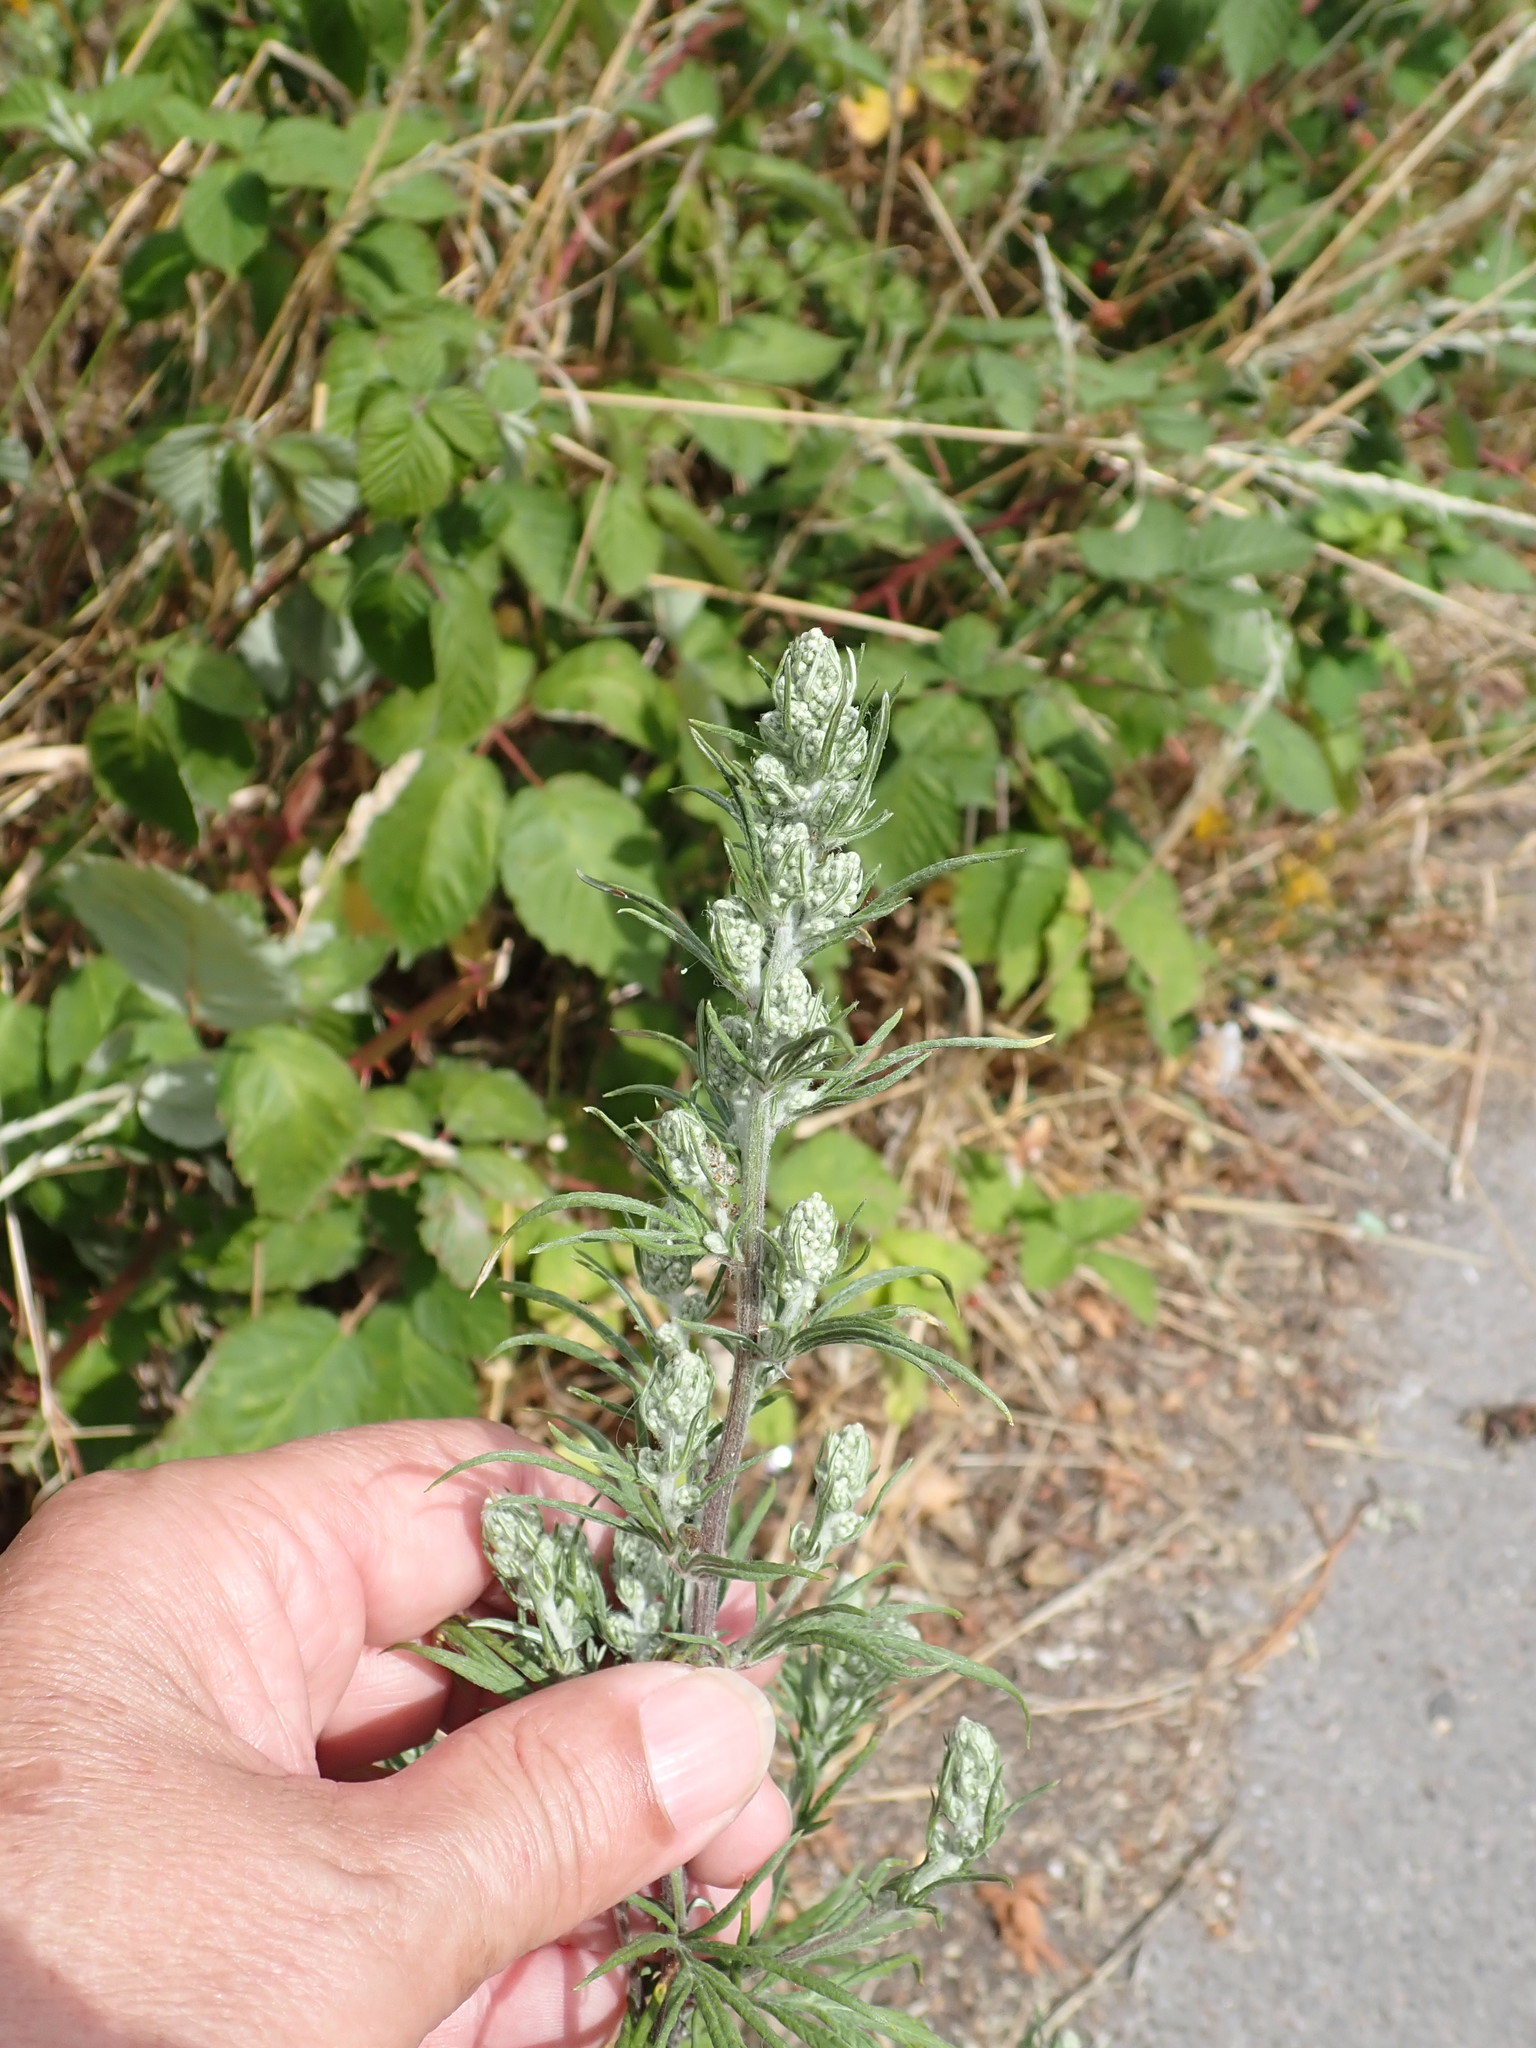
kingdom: Plantae
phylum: Tracheophyta
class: Magnoliopsida
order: Asterales
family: Asteraceae
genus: Artemisia
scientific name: Artemisia vulgaris
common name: Mugwort
